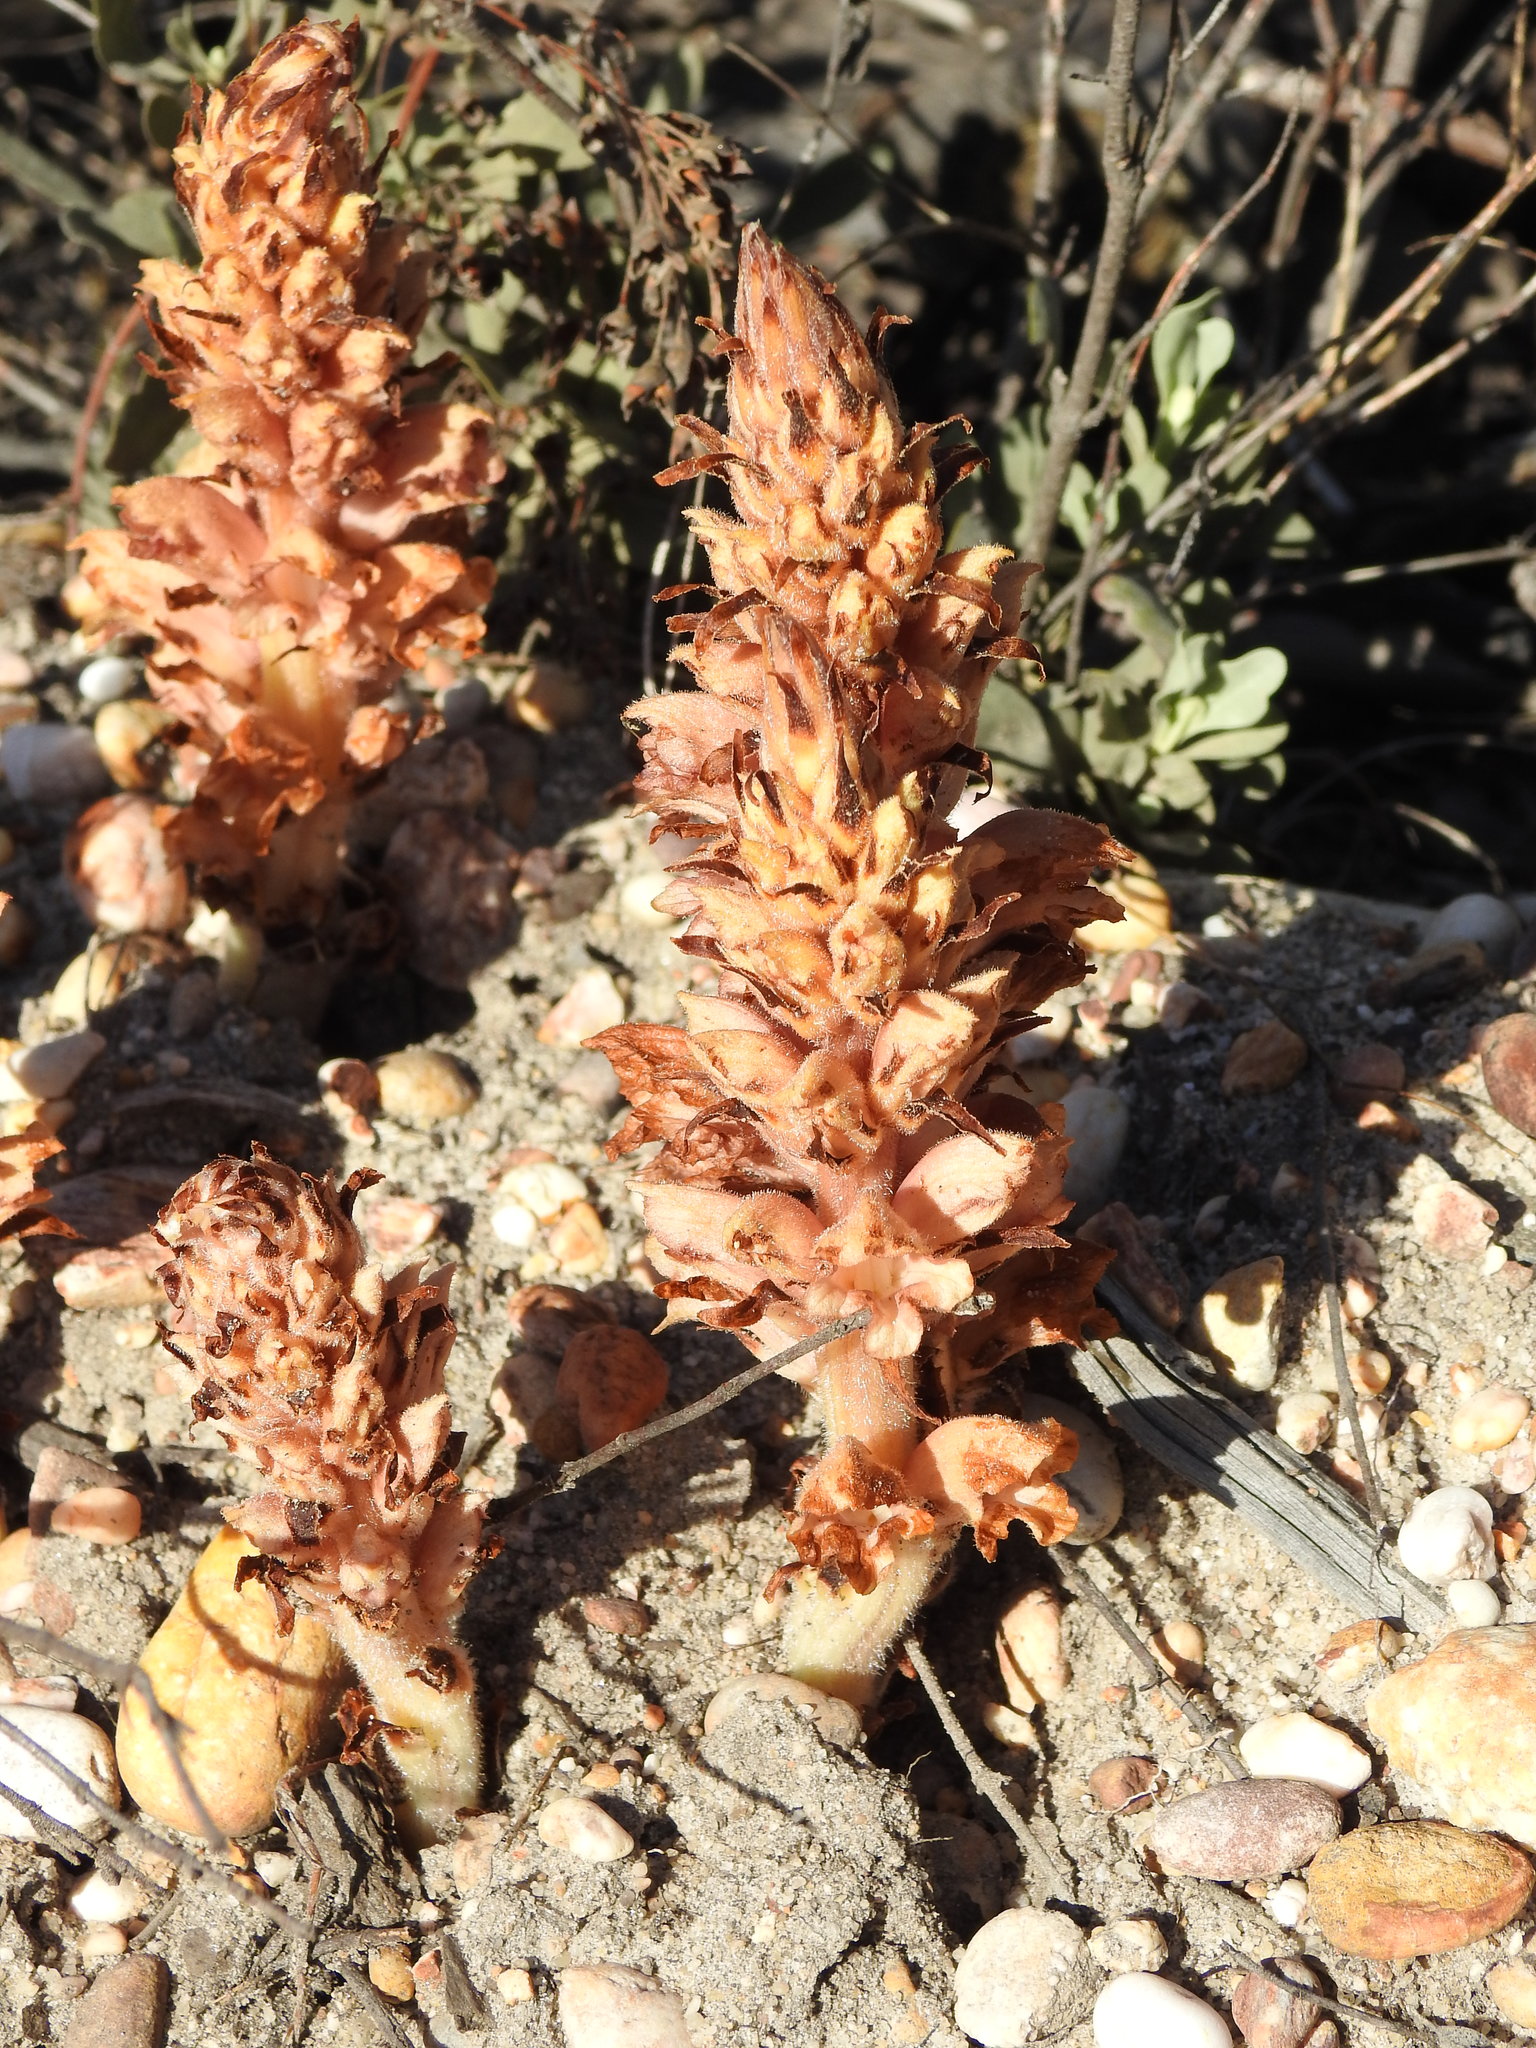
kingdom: Plantae
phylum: Tracheophyta
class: Magnoliopsida
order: Lamiales
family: Orobanchaceae
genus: Orobanche
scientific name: Orobanche rapum-genistae
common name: Greater broomrape
